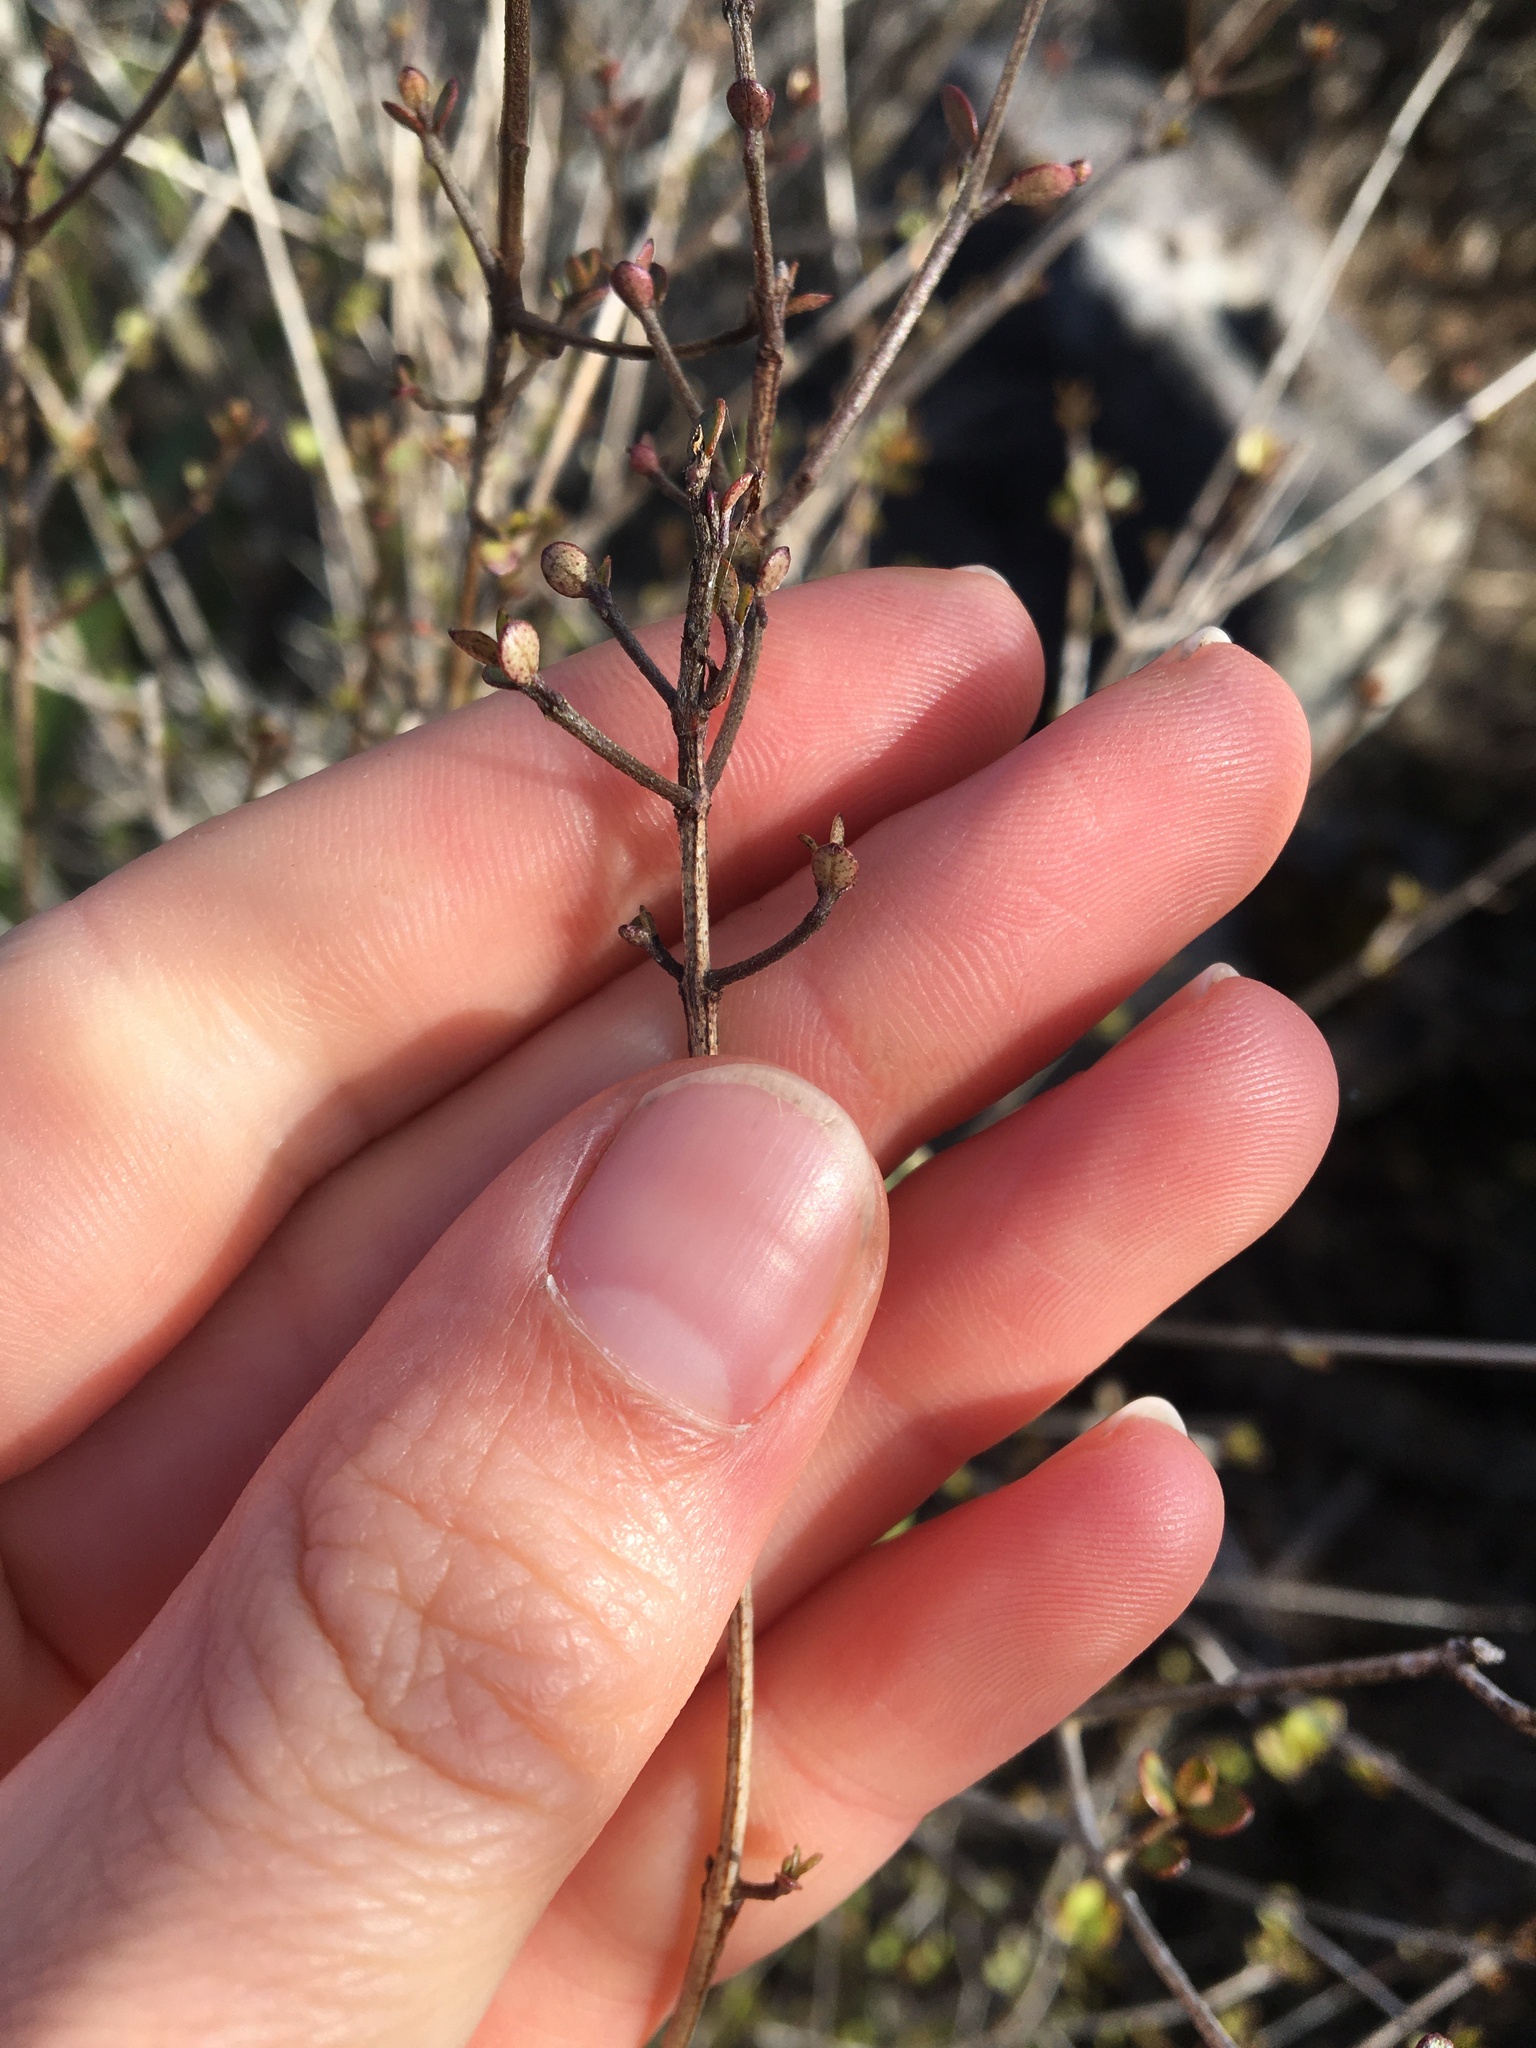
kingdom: Plantae
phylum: Tracheophyta
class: Magnoliopsida
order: Myrtales
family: Myrtaceae
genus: Neomyrtus
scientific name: Neomyrtus pedunculata
